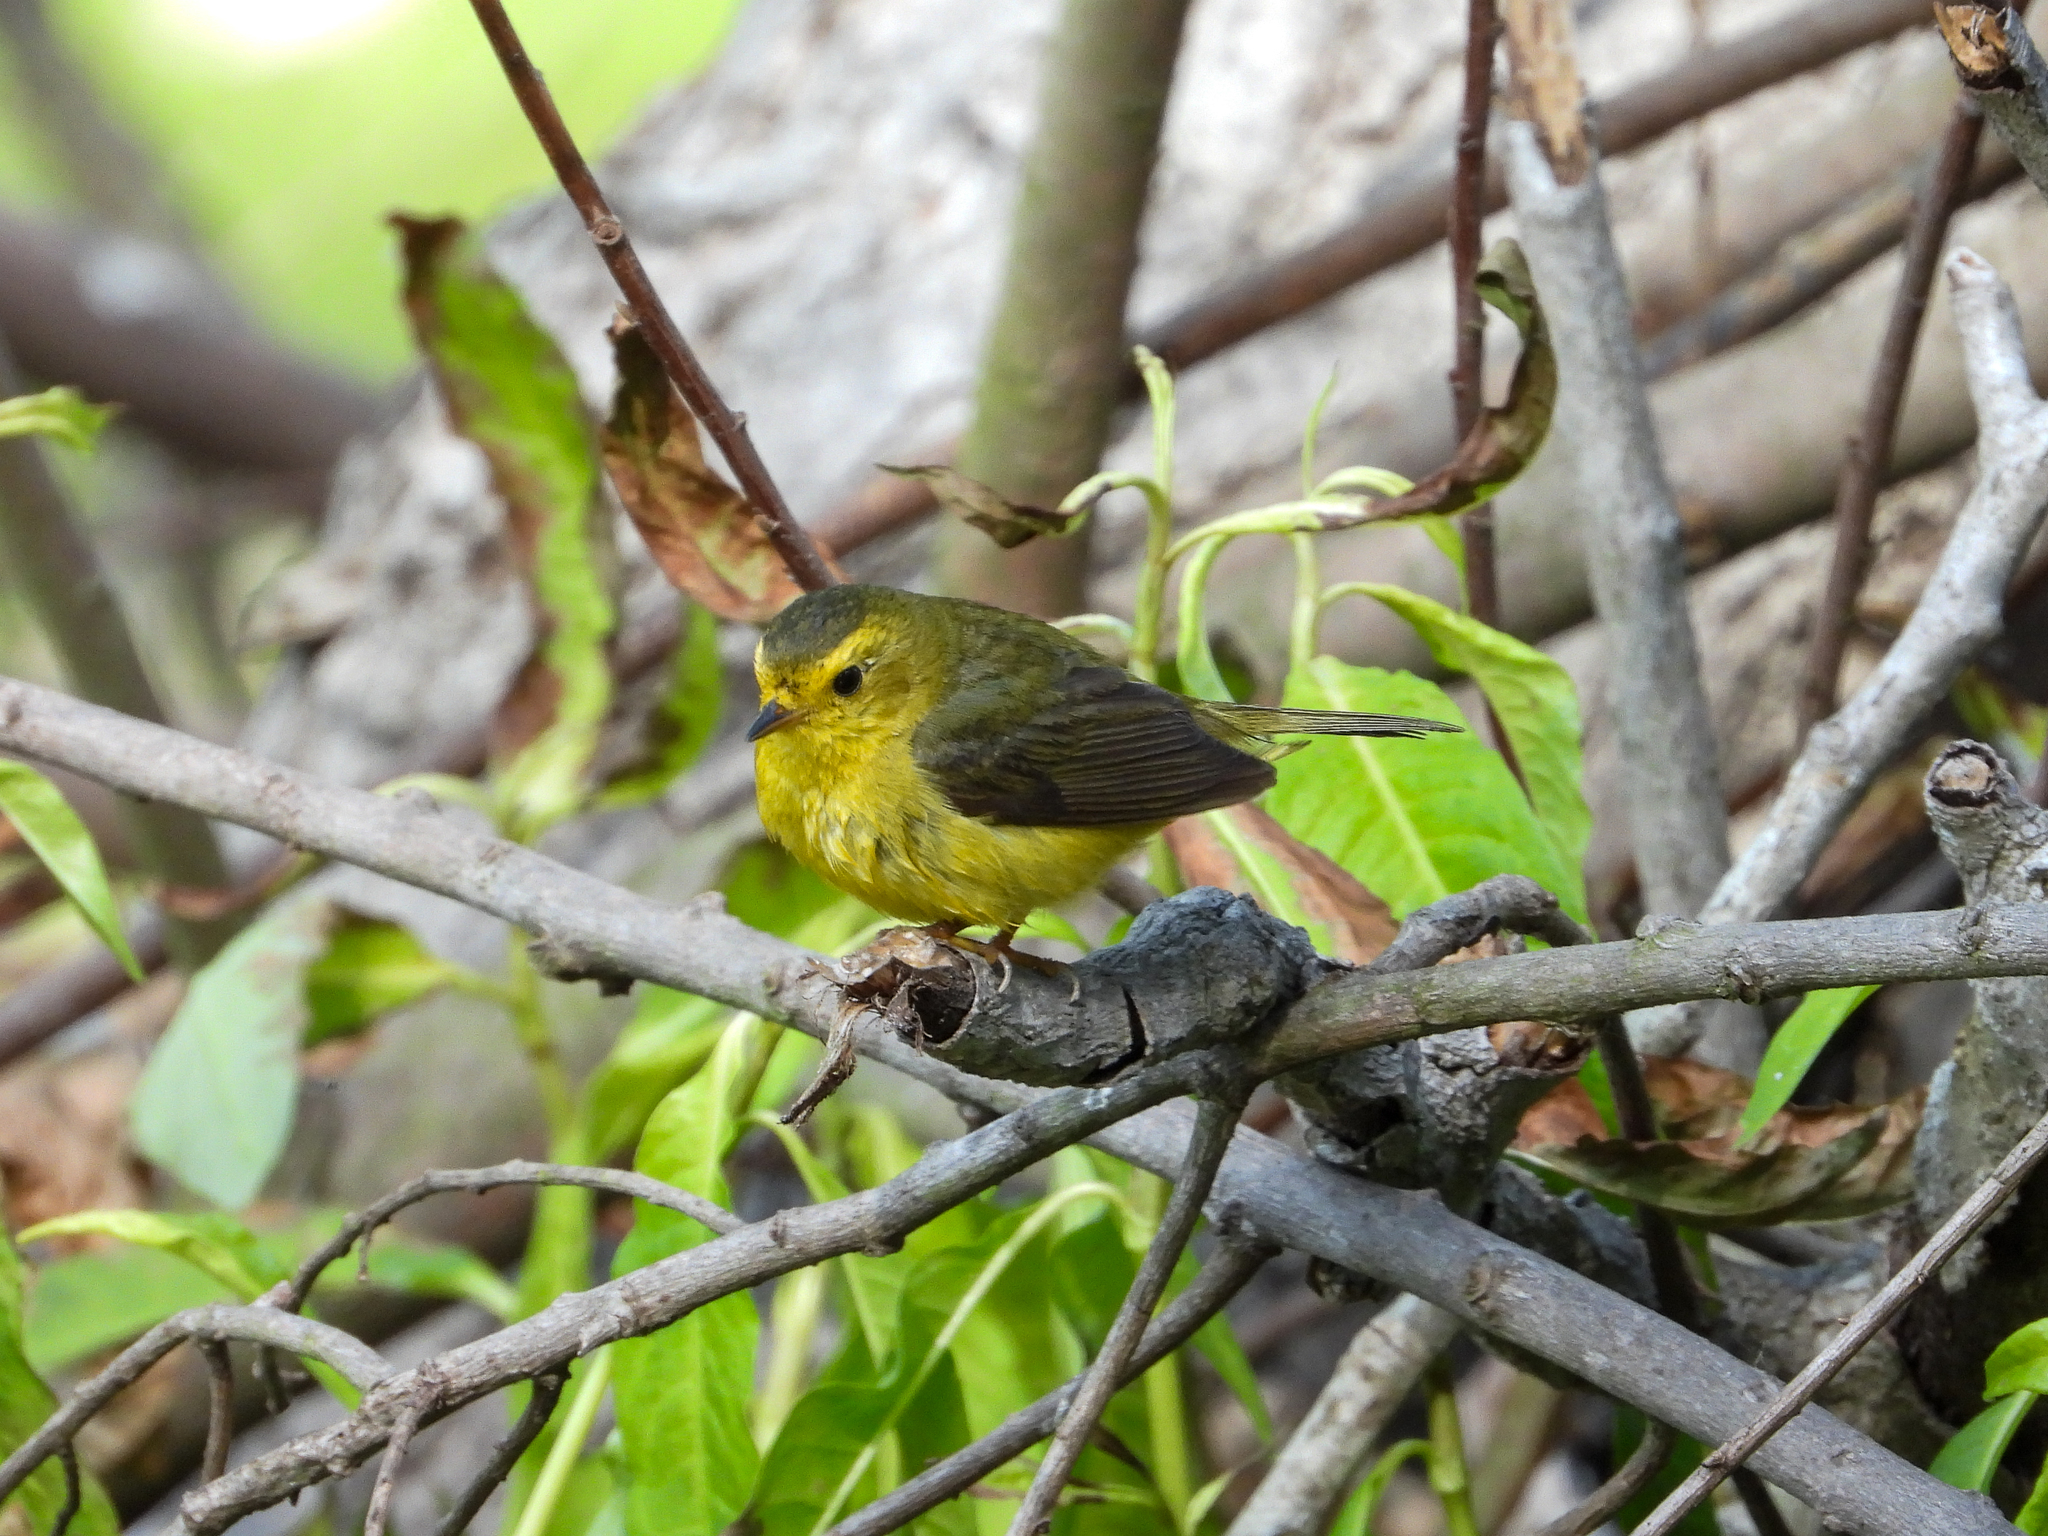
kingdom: Animalia
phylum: Chordata
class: Aves
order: Passeriformes
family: Parulidae
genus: Cardellina
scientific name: Cardellina pusilla
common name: Wilson's warbler
